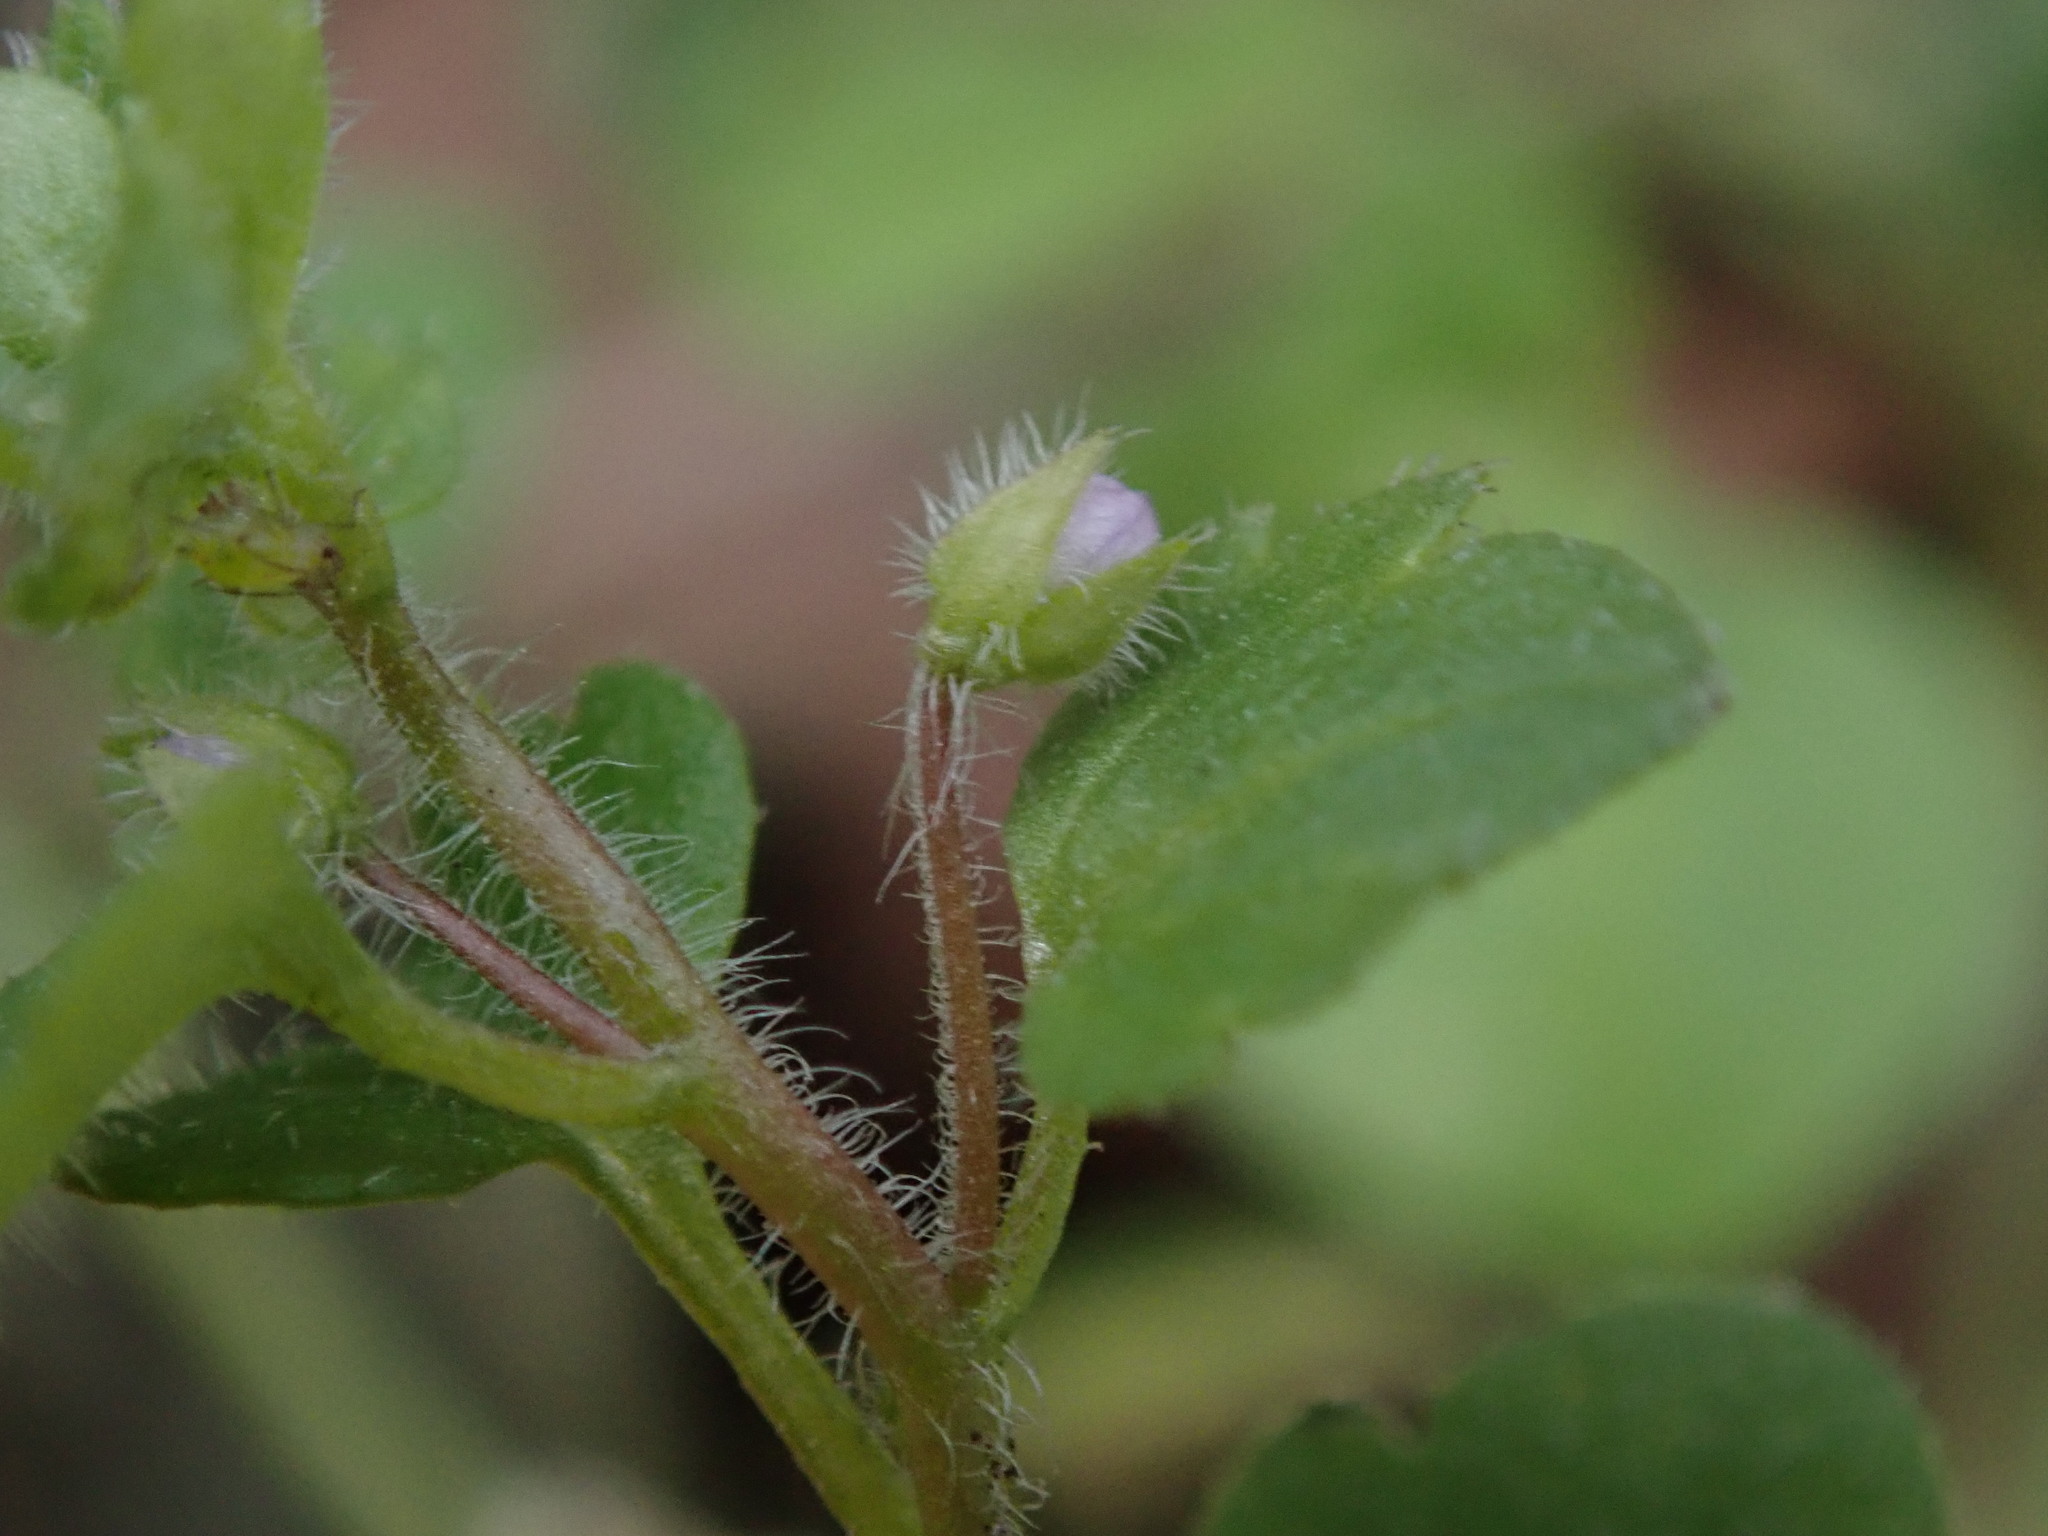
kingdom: Plantae
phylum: Tracheophyta
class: Magnoliopsida
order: Lamiales
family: Plantaginaceae
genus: Veronica
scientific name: Veronica sublobata
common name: False ivy-leaved speedwell
